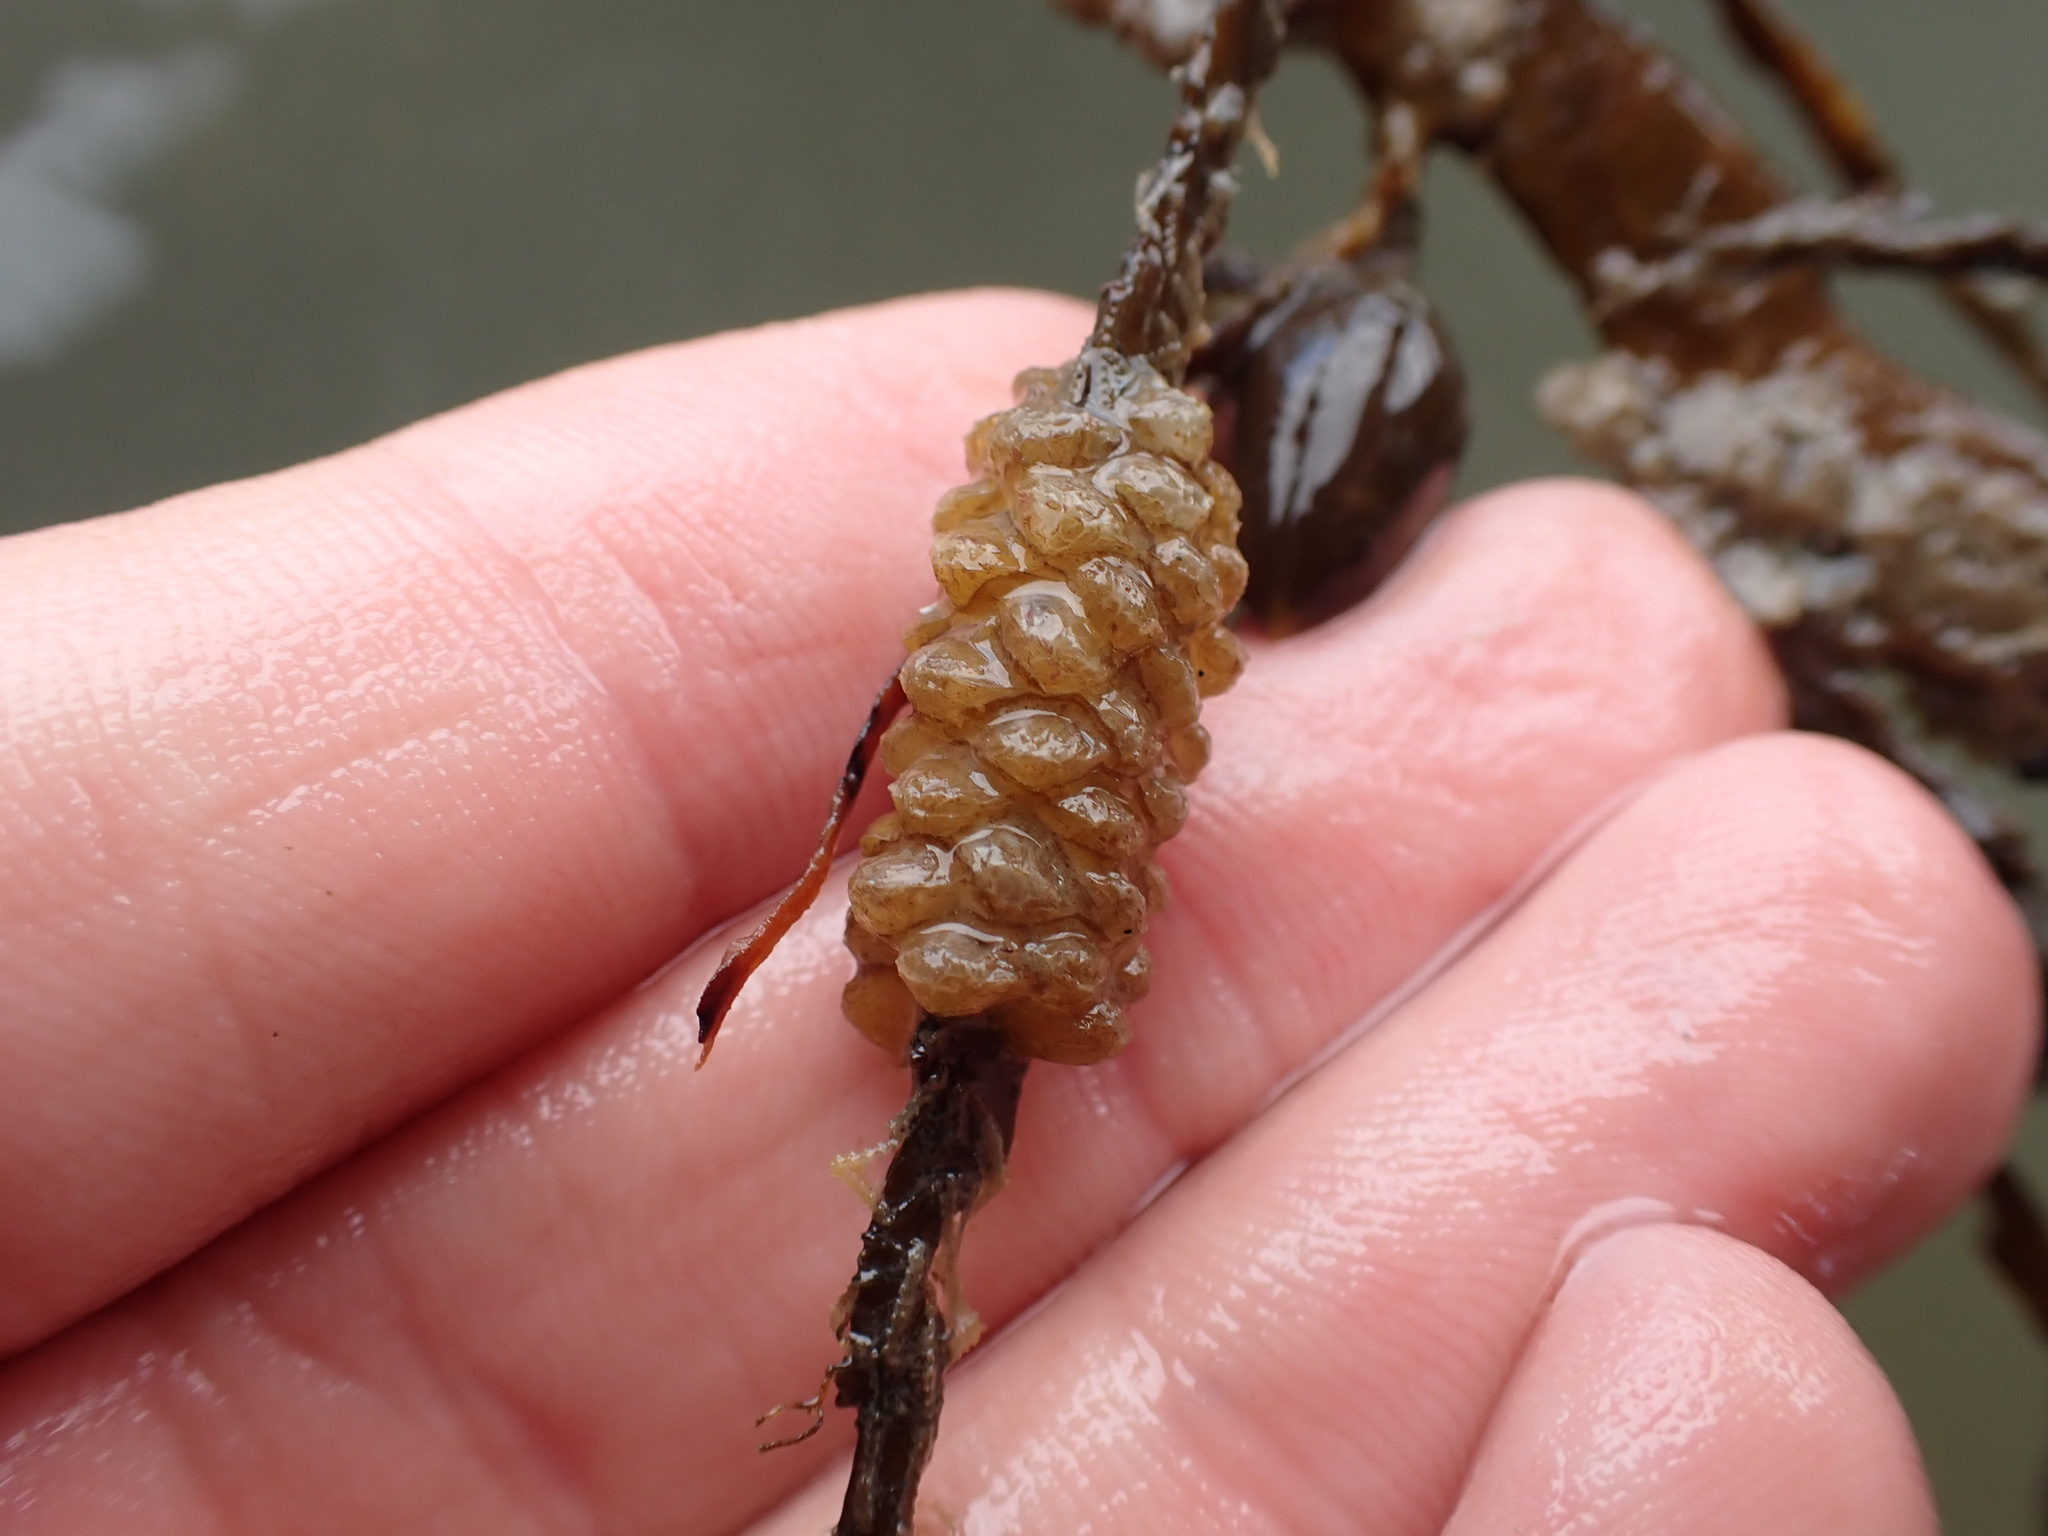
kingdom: Animalia
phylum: Mollusca
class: Gastropoda
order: Neogastropoda
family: Tudiclidae
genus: Buccinulum
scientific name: Buccinulum
